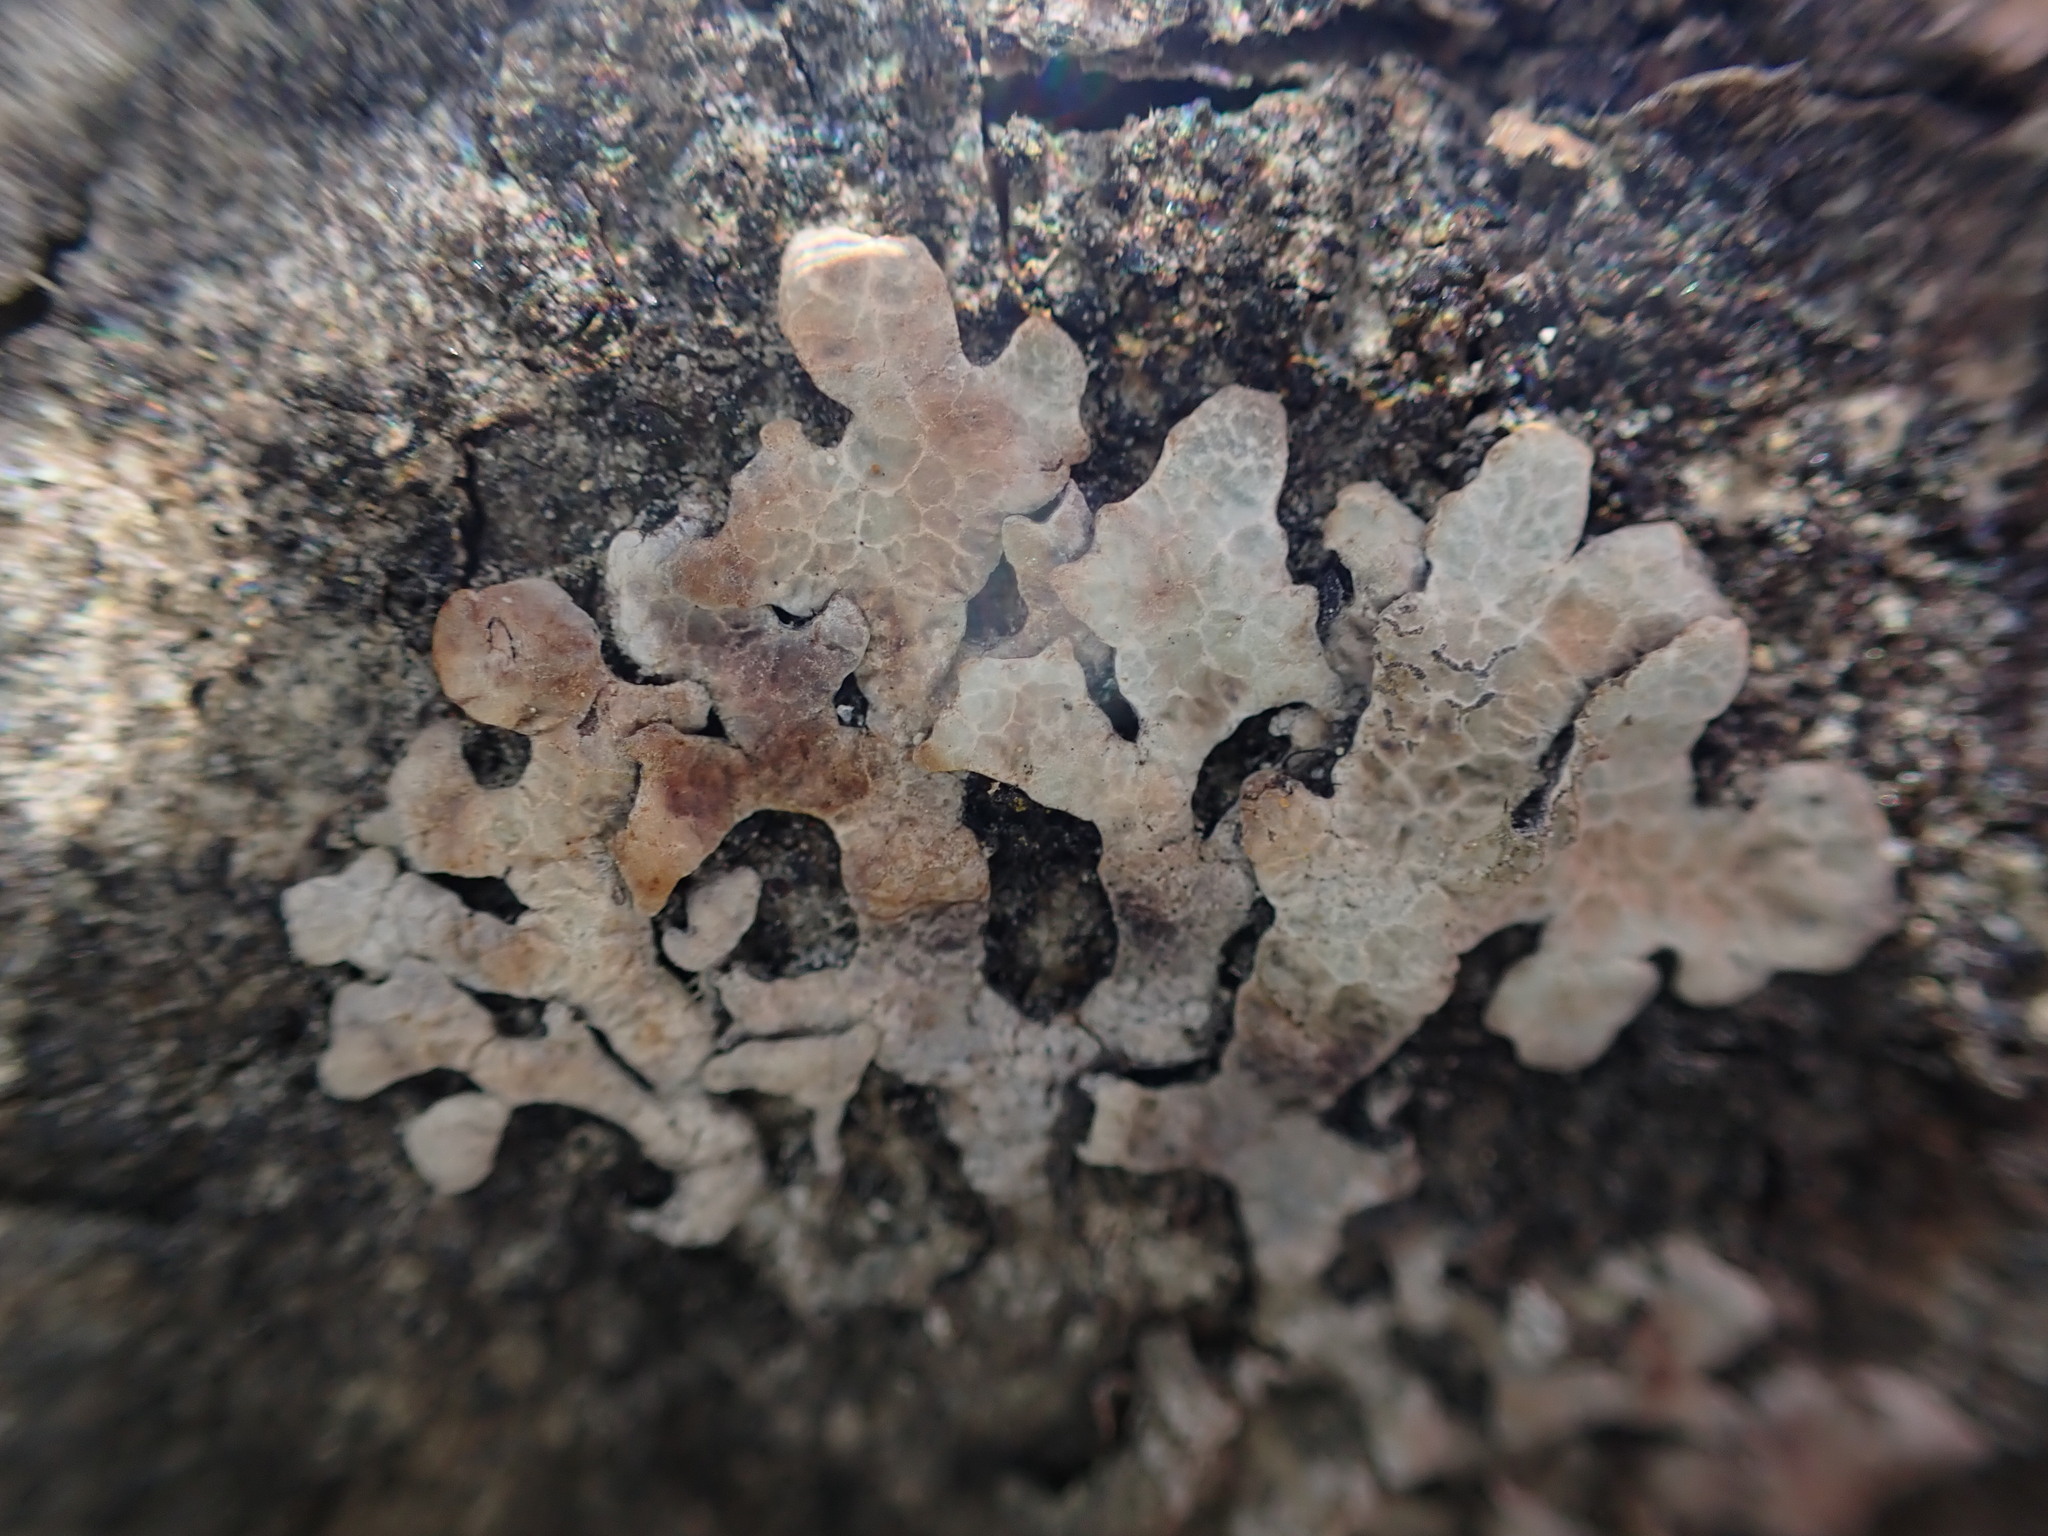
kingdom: Fungi
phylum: Ascomycota
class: Lecanoromycetes
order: Lecanorales
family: Parmeliaceae
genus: Parmelia
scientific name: Parmelia sulcata
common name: Netted shield lichen
